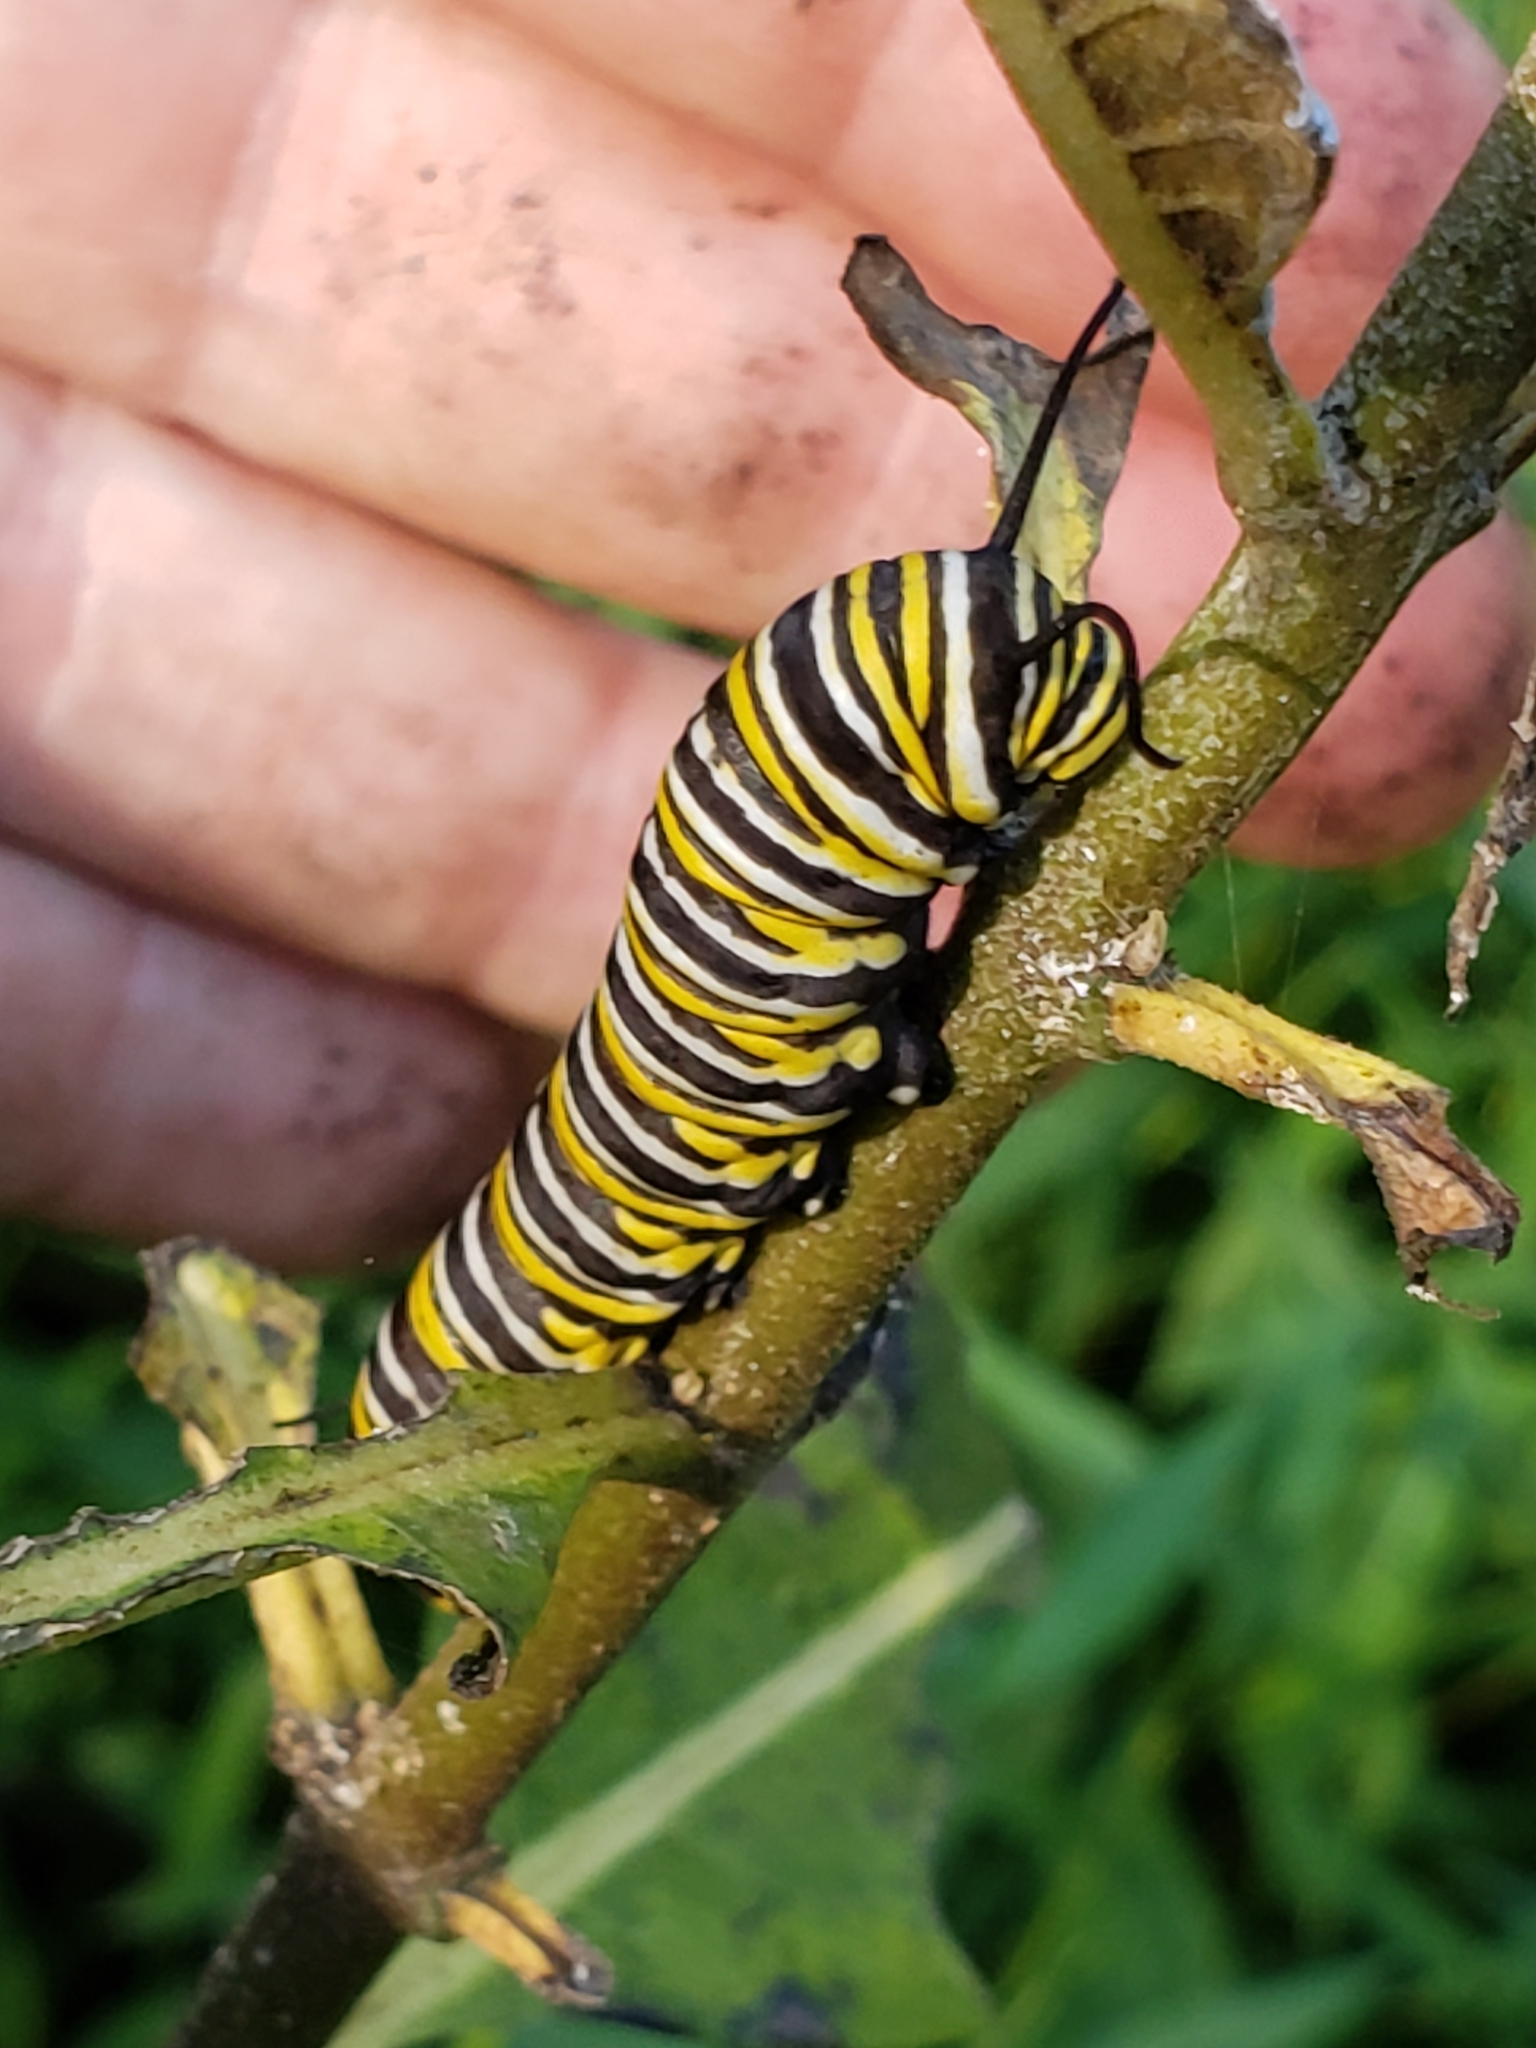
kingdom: Animalia
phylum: Arthropoda
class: Insecta
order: Lepidoptera
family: Nymphalidae
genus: Danaus
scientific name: Danaus plexippus
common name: Monarch
